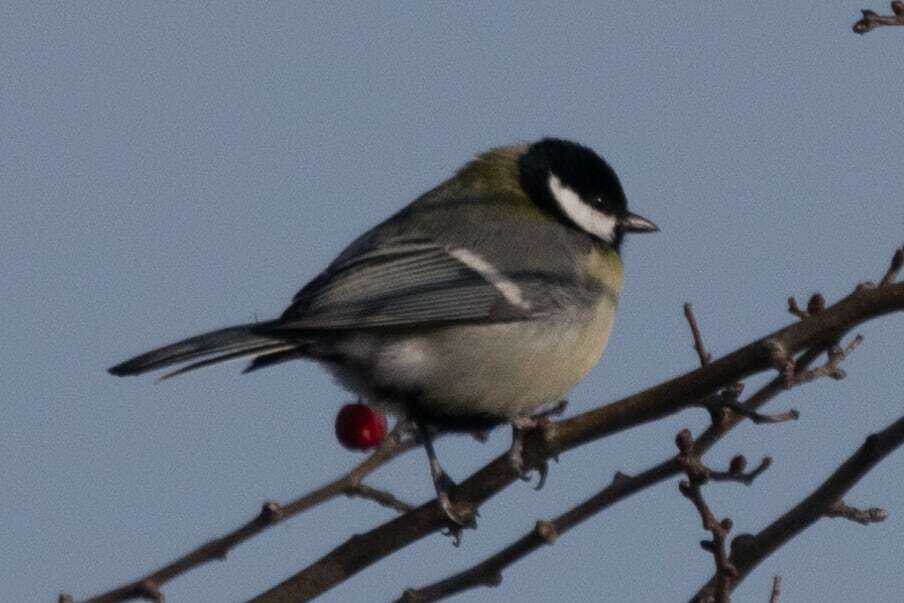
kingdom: Animalia
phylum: Chordata
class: Aves
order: Passeriformes
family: Paridae
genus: Parus
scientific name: Parus major
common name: Great tit
